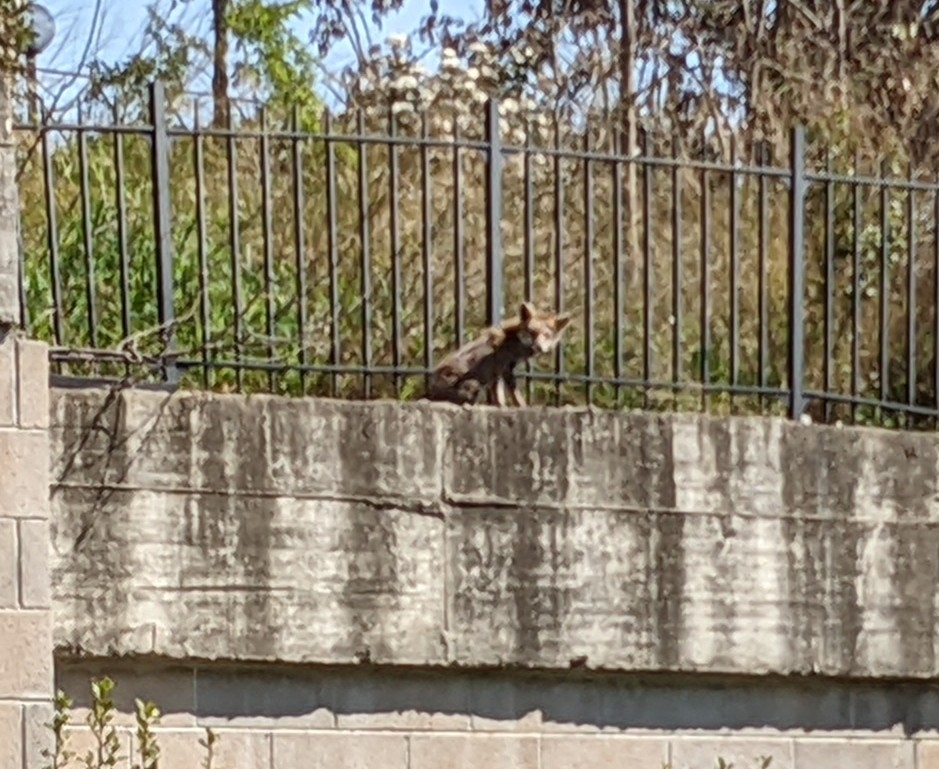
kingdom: Animalia
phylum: Chordata
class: Mammalia
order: Carnivora
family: Canidae
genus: Vulpes
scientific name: Vulpes vulpes
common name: Red fox
